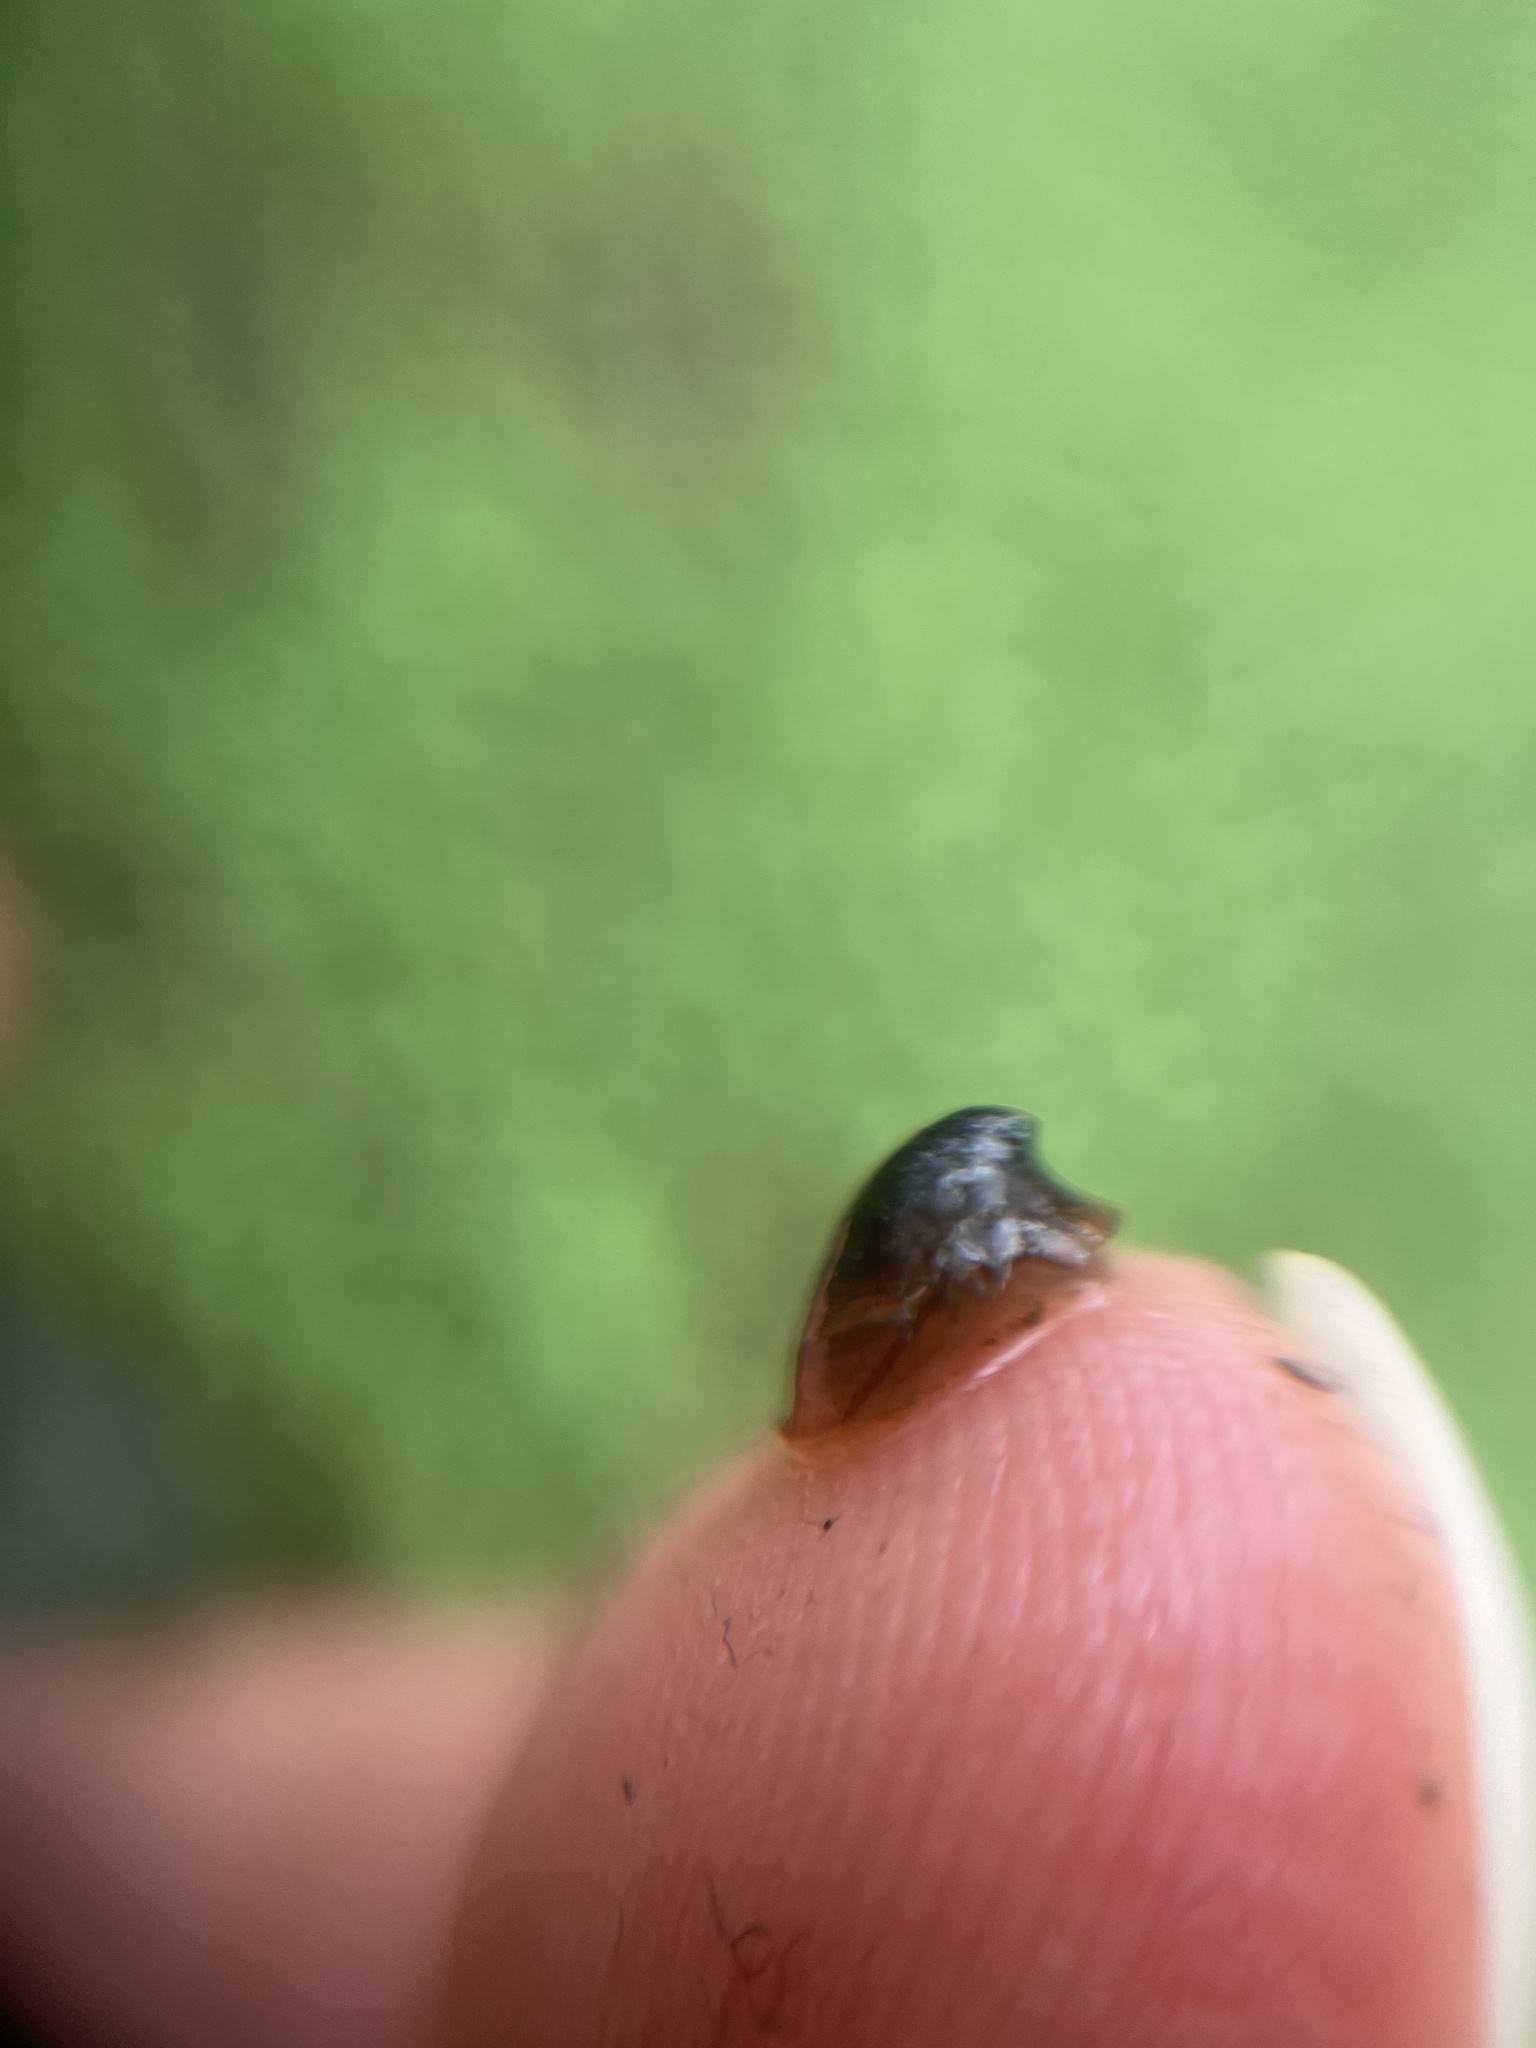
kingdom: Animalia
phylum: Mollusca
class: Gastropoda
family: Planorbidae
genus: Ancylus
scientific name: Ancylus fluviatilis
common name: River limpet
